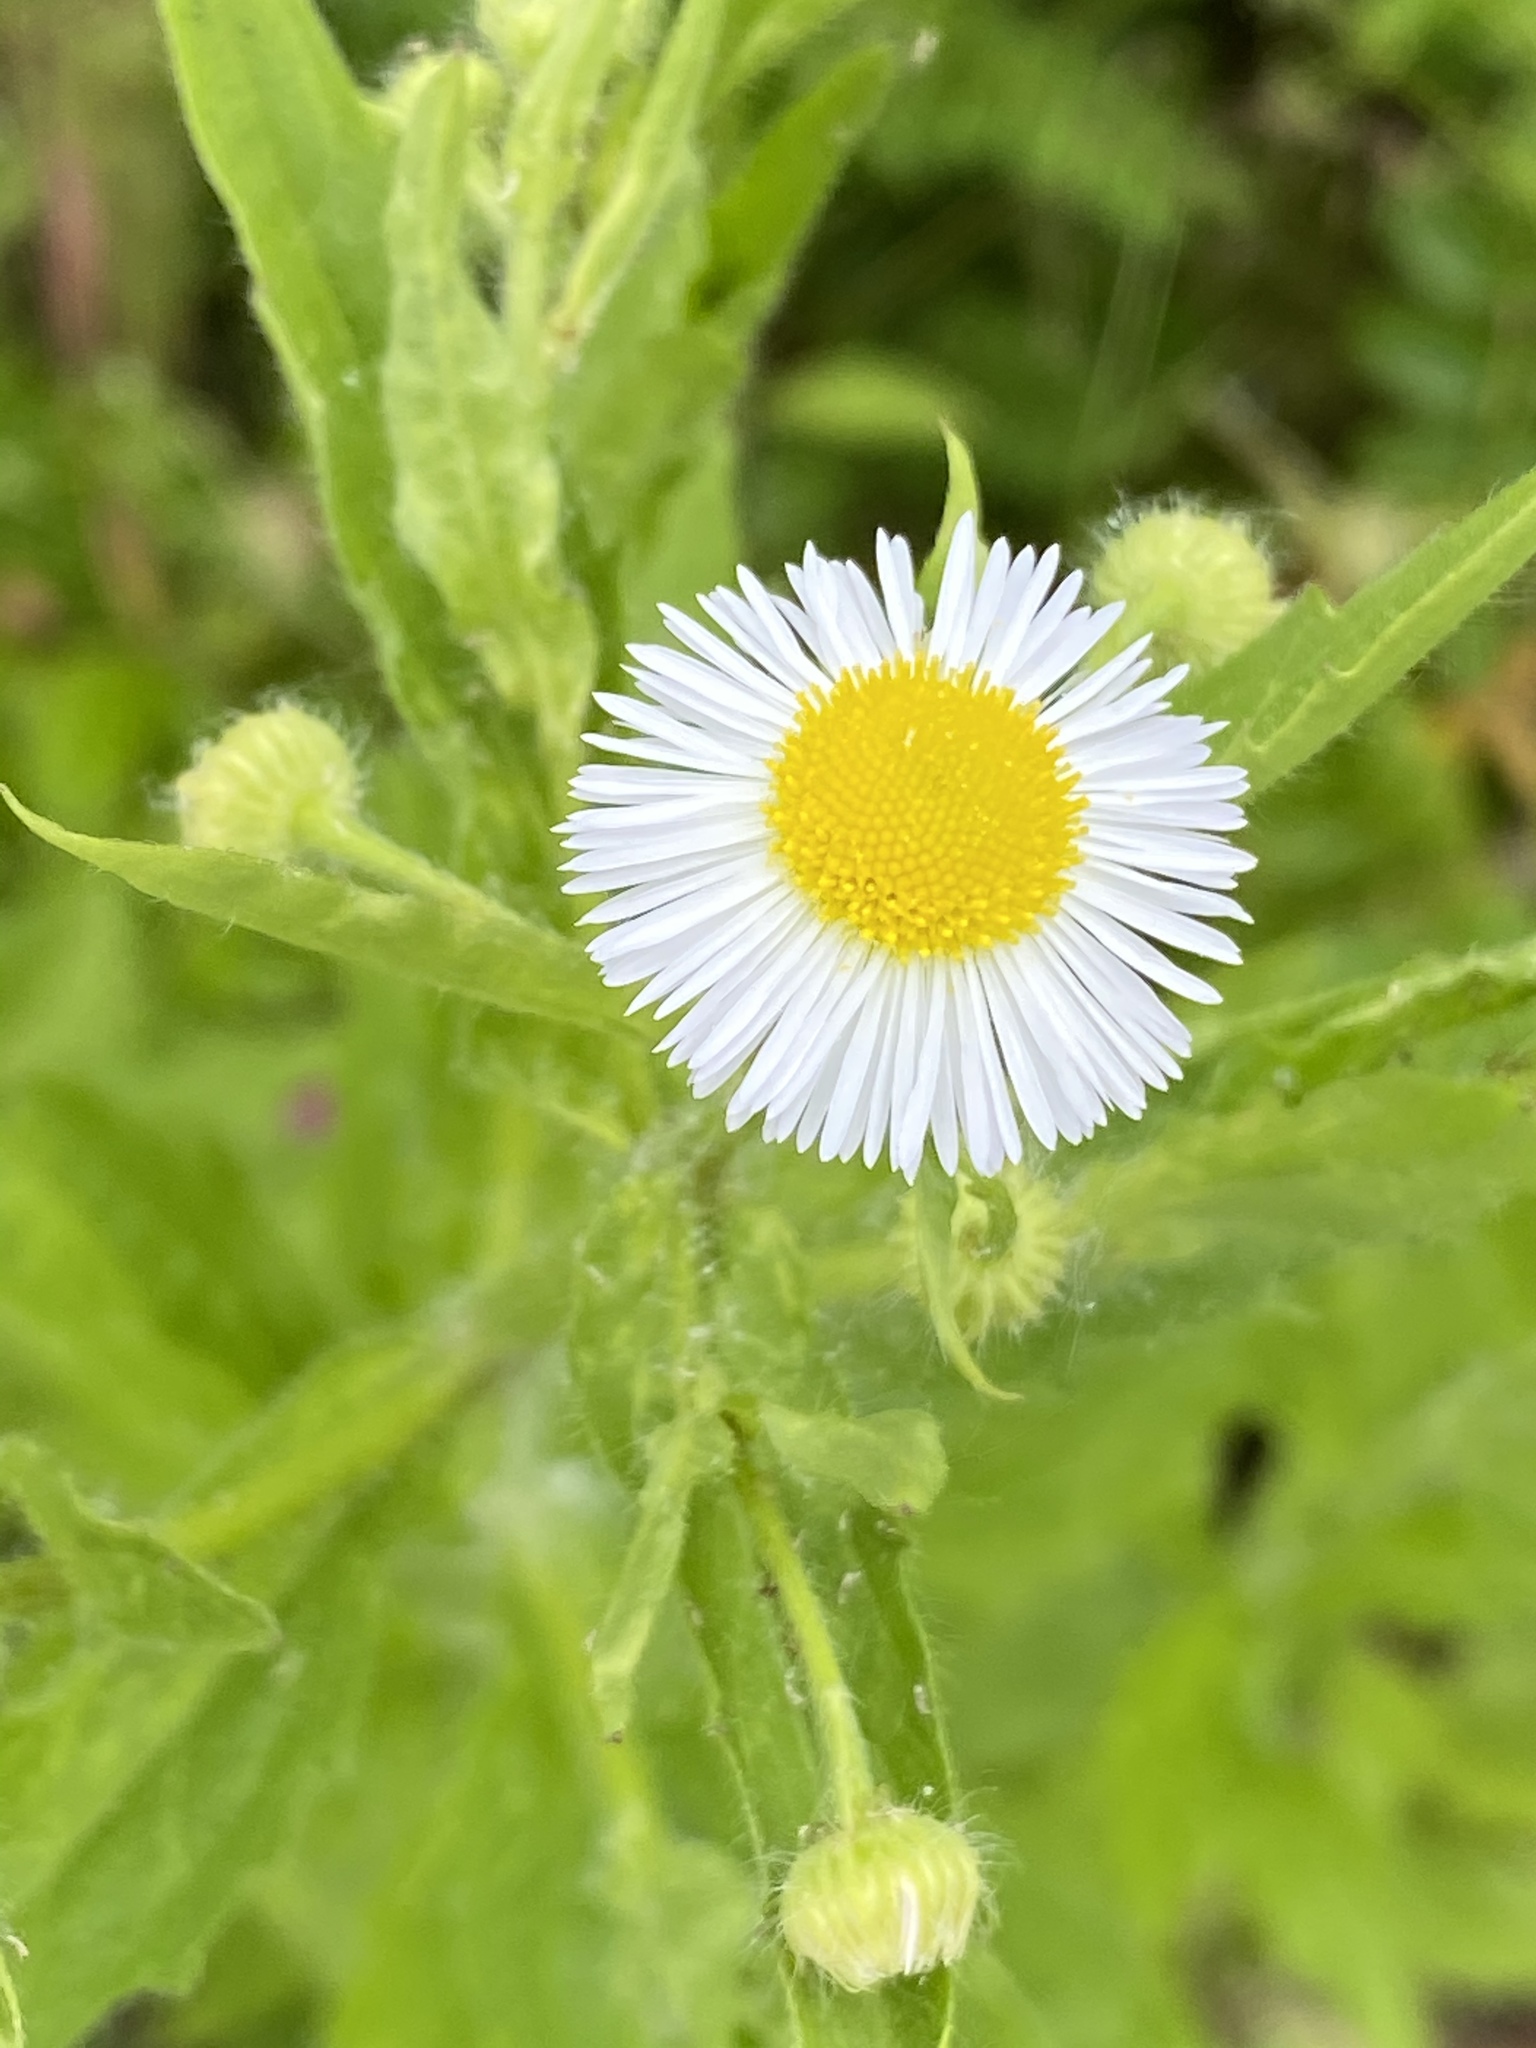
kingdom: Plantae
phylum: Tracheophyta
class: Magnoliopsida
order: Asterales
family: Asteraceae
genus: Erigeron
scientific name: Erigeron annuus
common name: Tall fleabane
